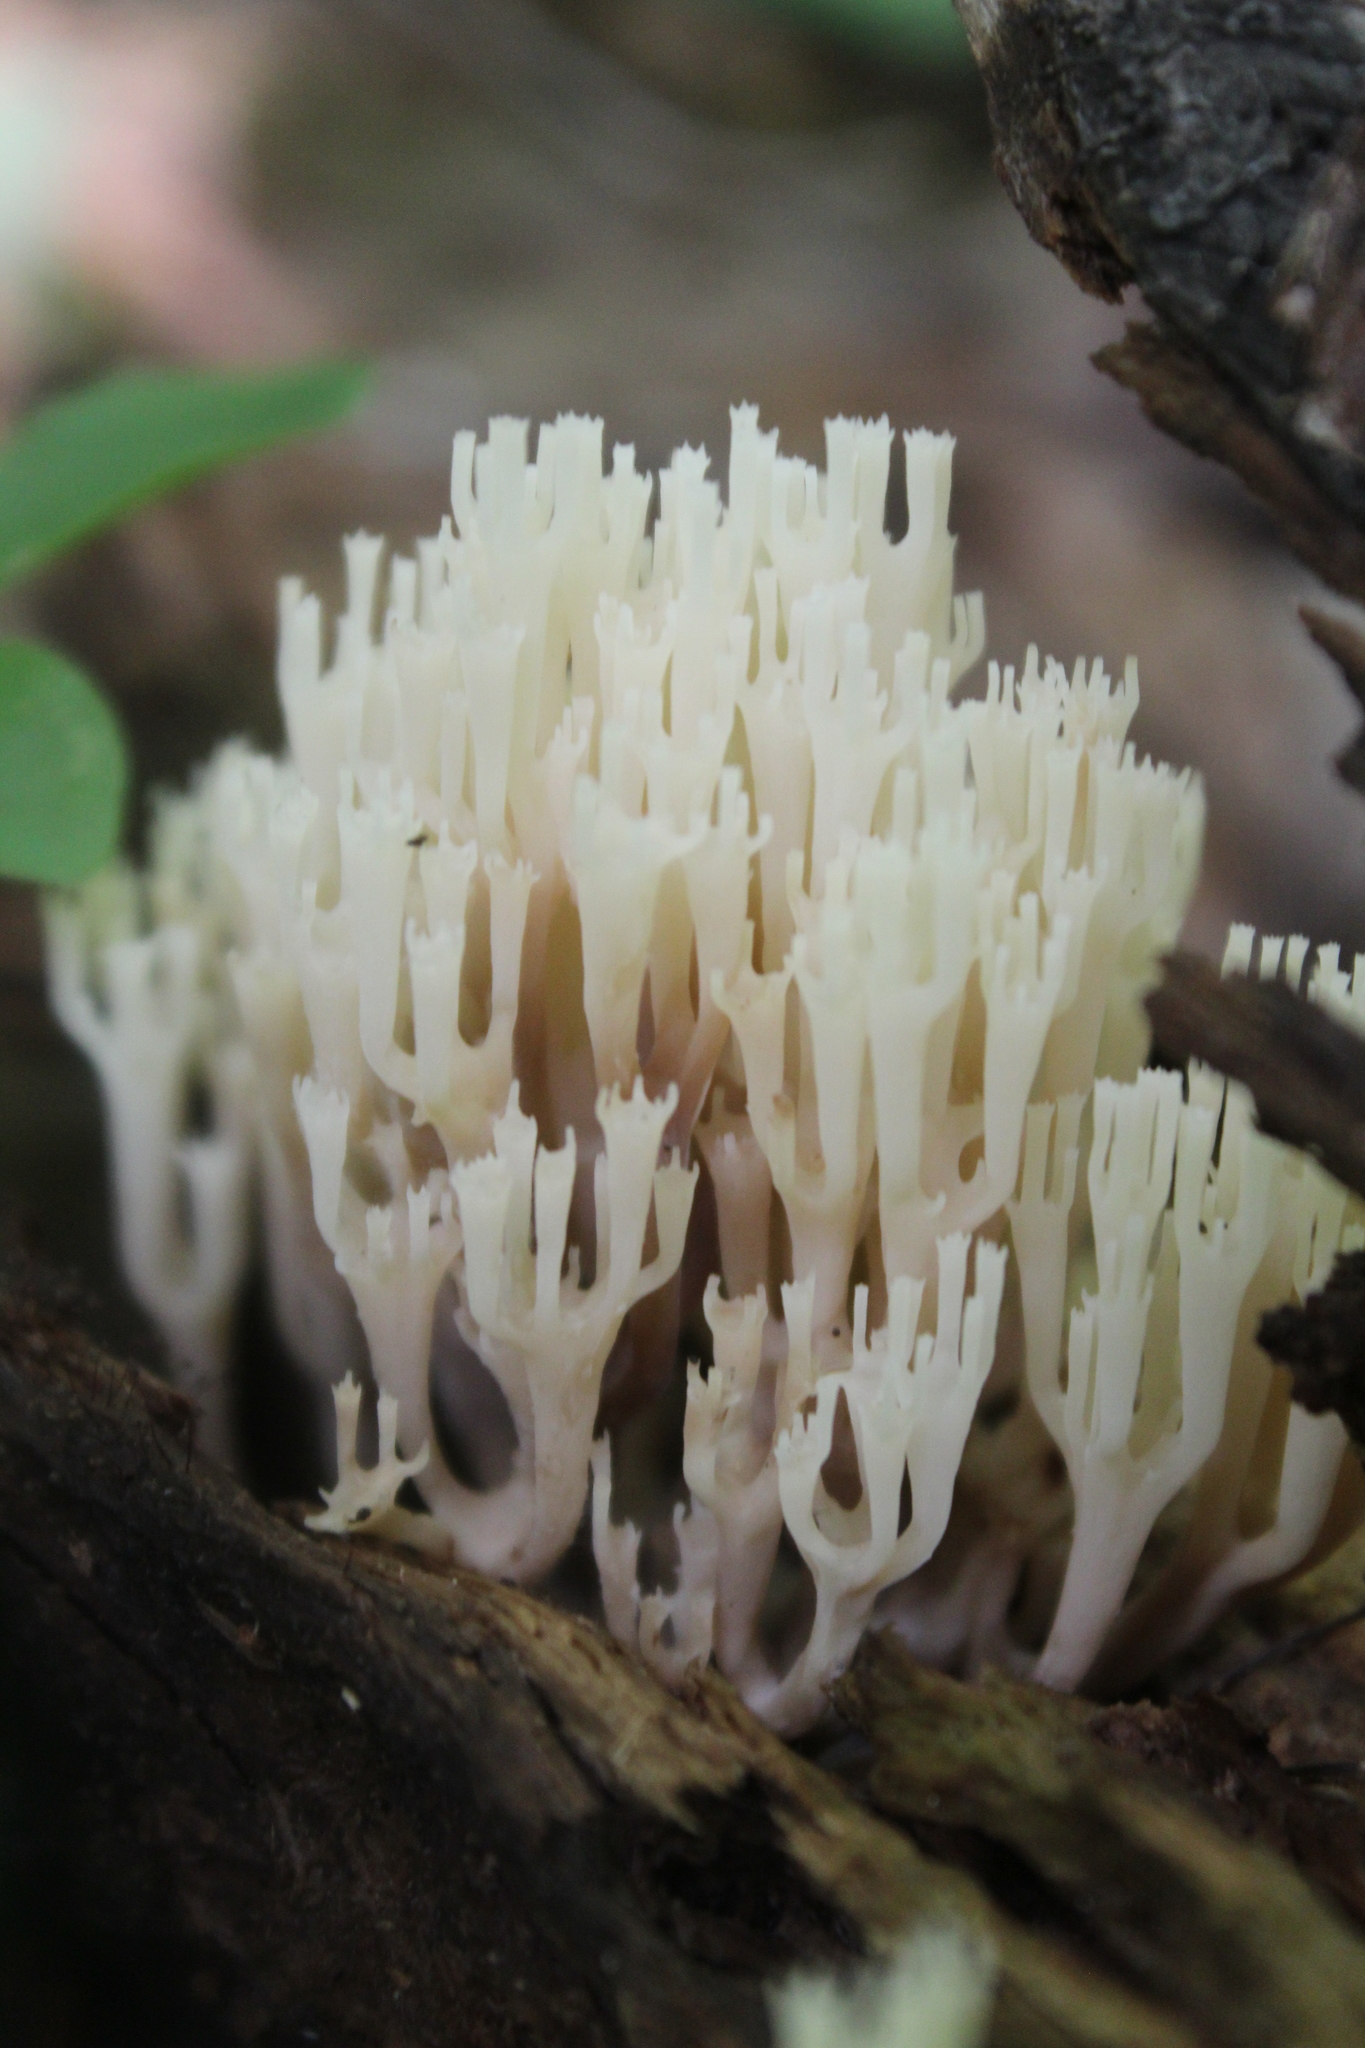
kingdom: Fungi
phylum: Basidiomycota
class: Agaricomycetes
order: Russulales
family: Auriscalpiaceae
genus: Artomyces
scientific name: Artomyces pyxidatus
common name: Crown-tipped coral fungus
